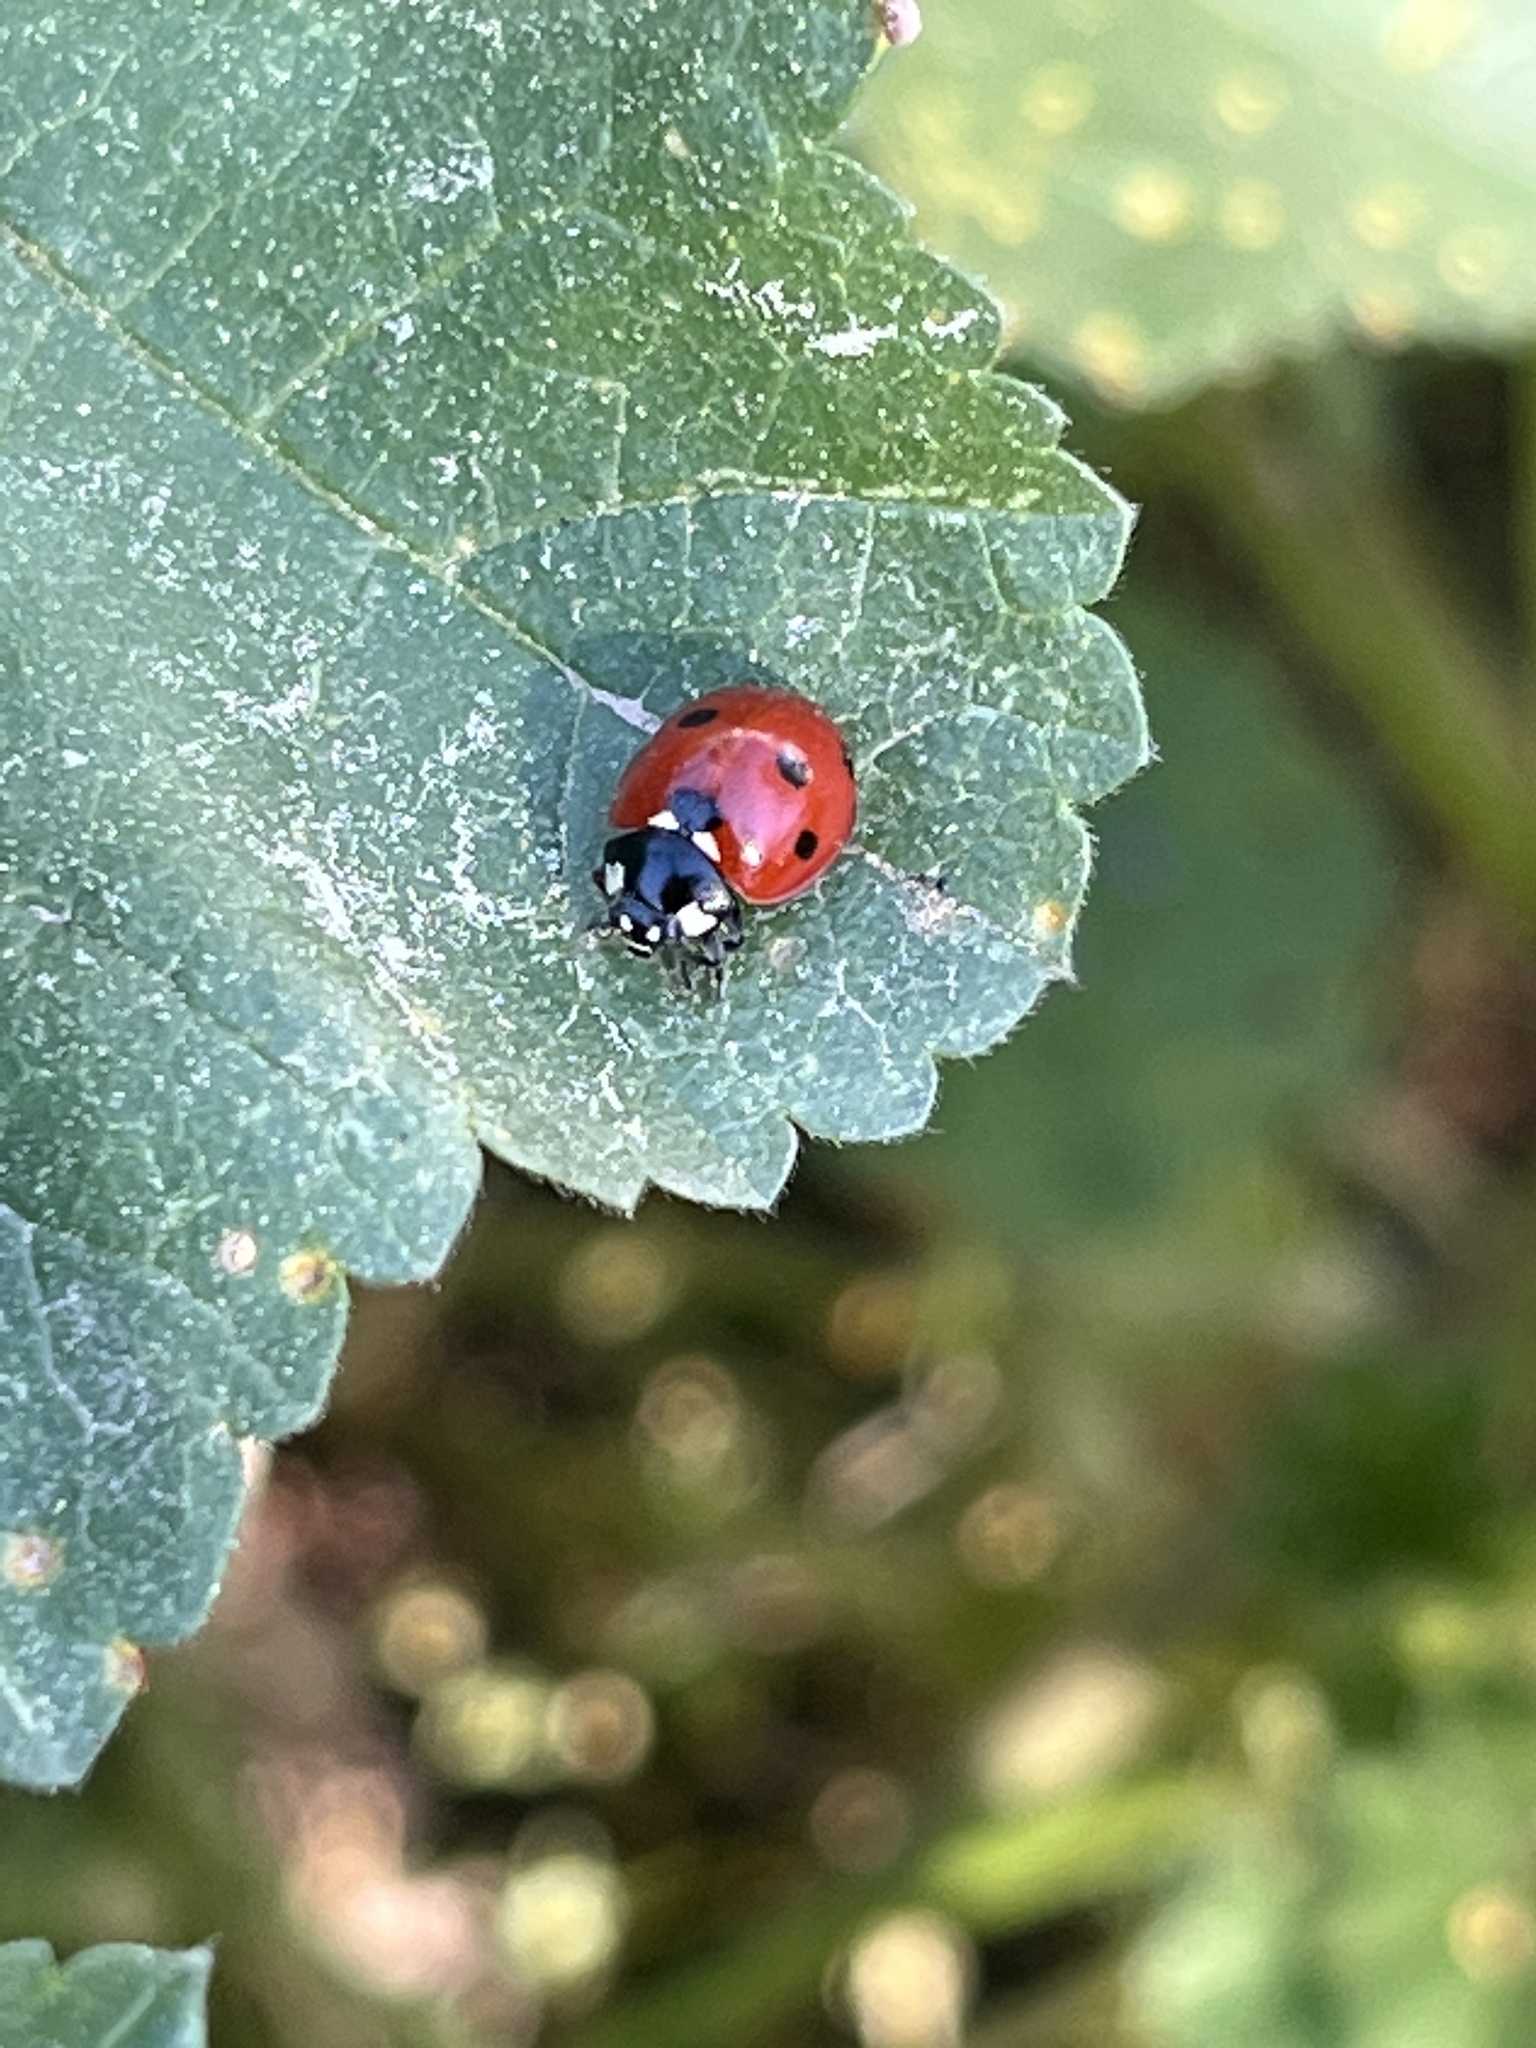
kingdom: Animalia
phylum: Arthropoda
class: Insecta
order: Coleoptera
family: Coccinellidae
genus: Coccinella
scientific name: Coccinella septempunctata
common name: Sevenspotted lady beetle
